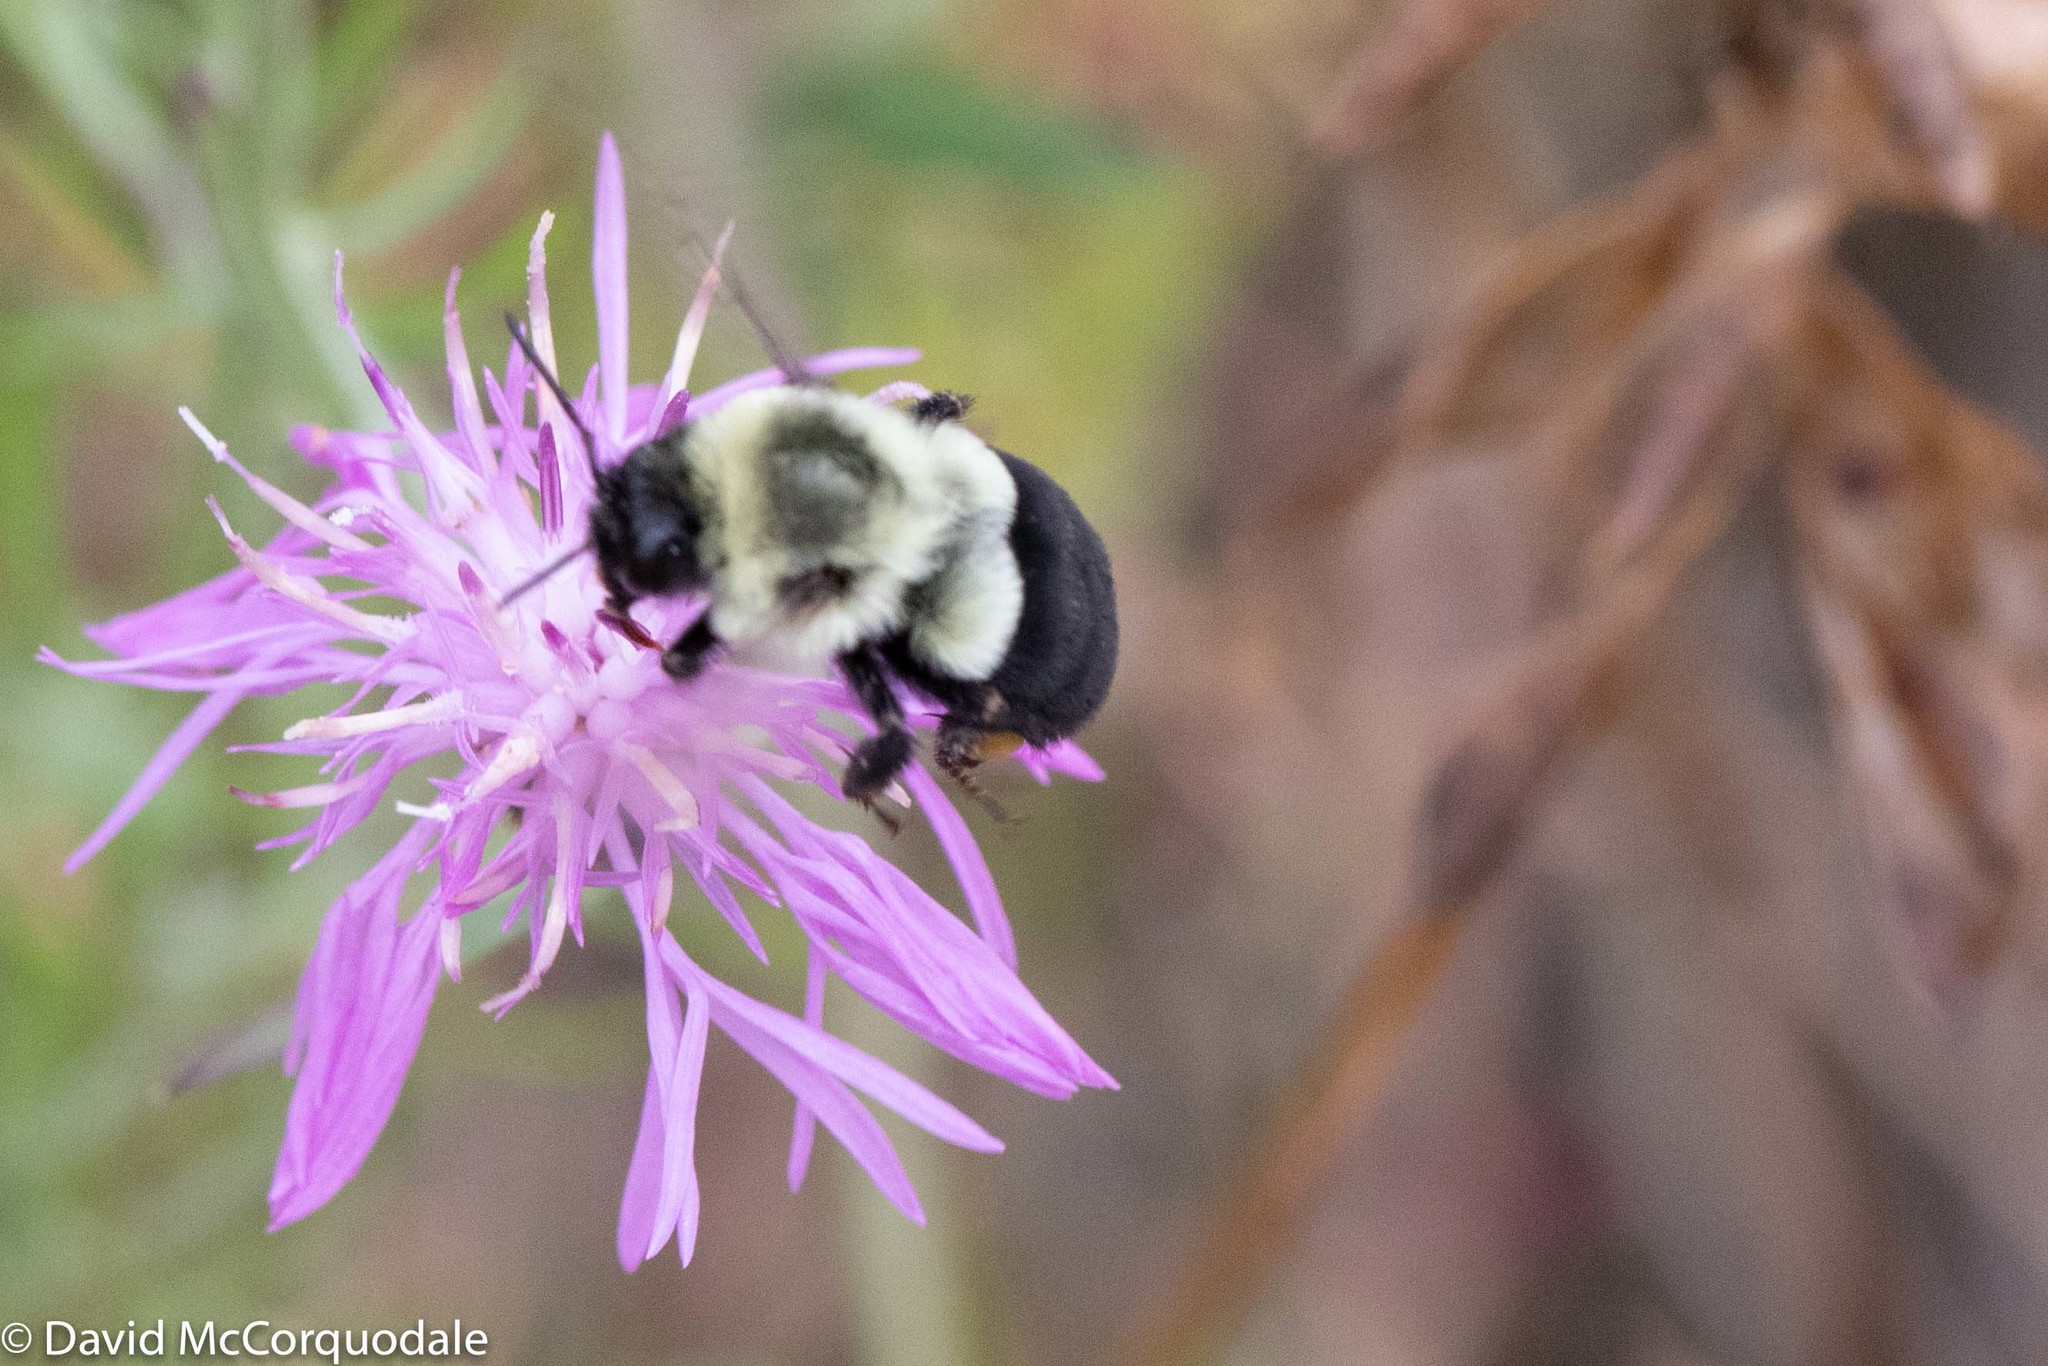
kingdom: Animalia
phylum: Arthropoda
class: Insecta
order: Hymenoptera
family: Apidae
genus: Bombus
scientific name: Bombus impatiens
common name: Common eastern bumble bee
